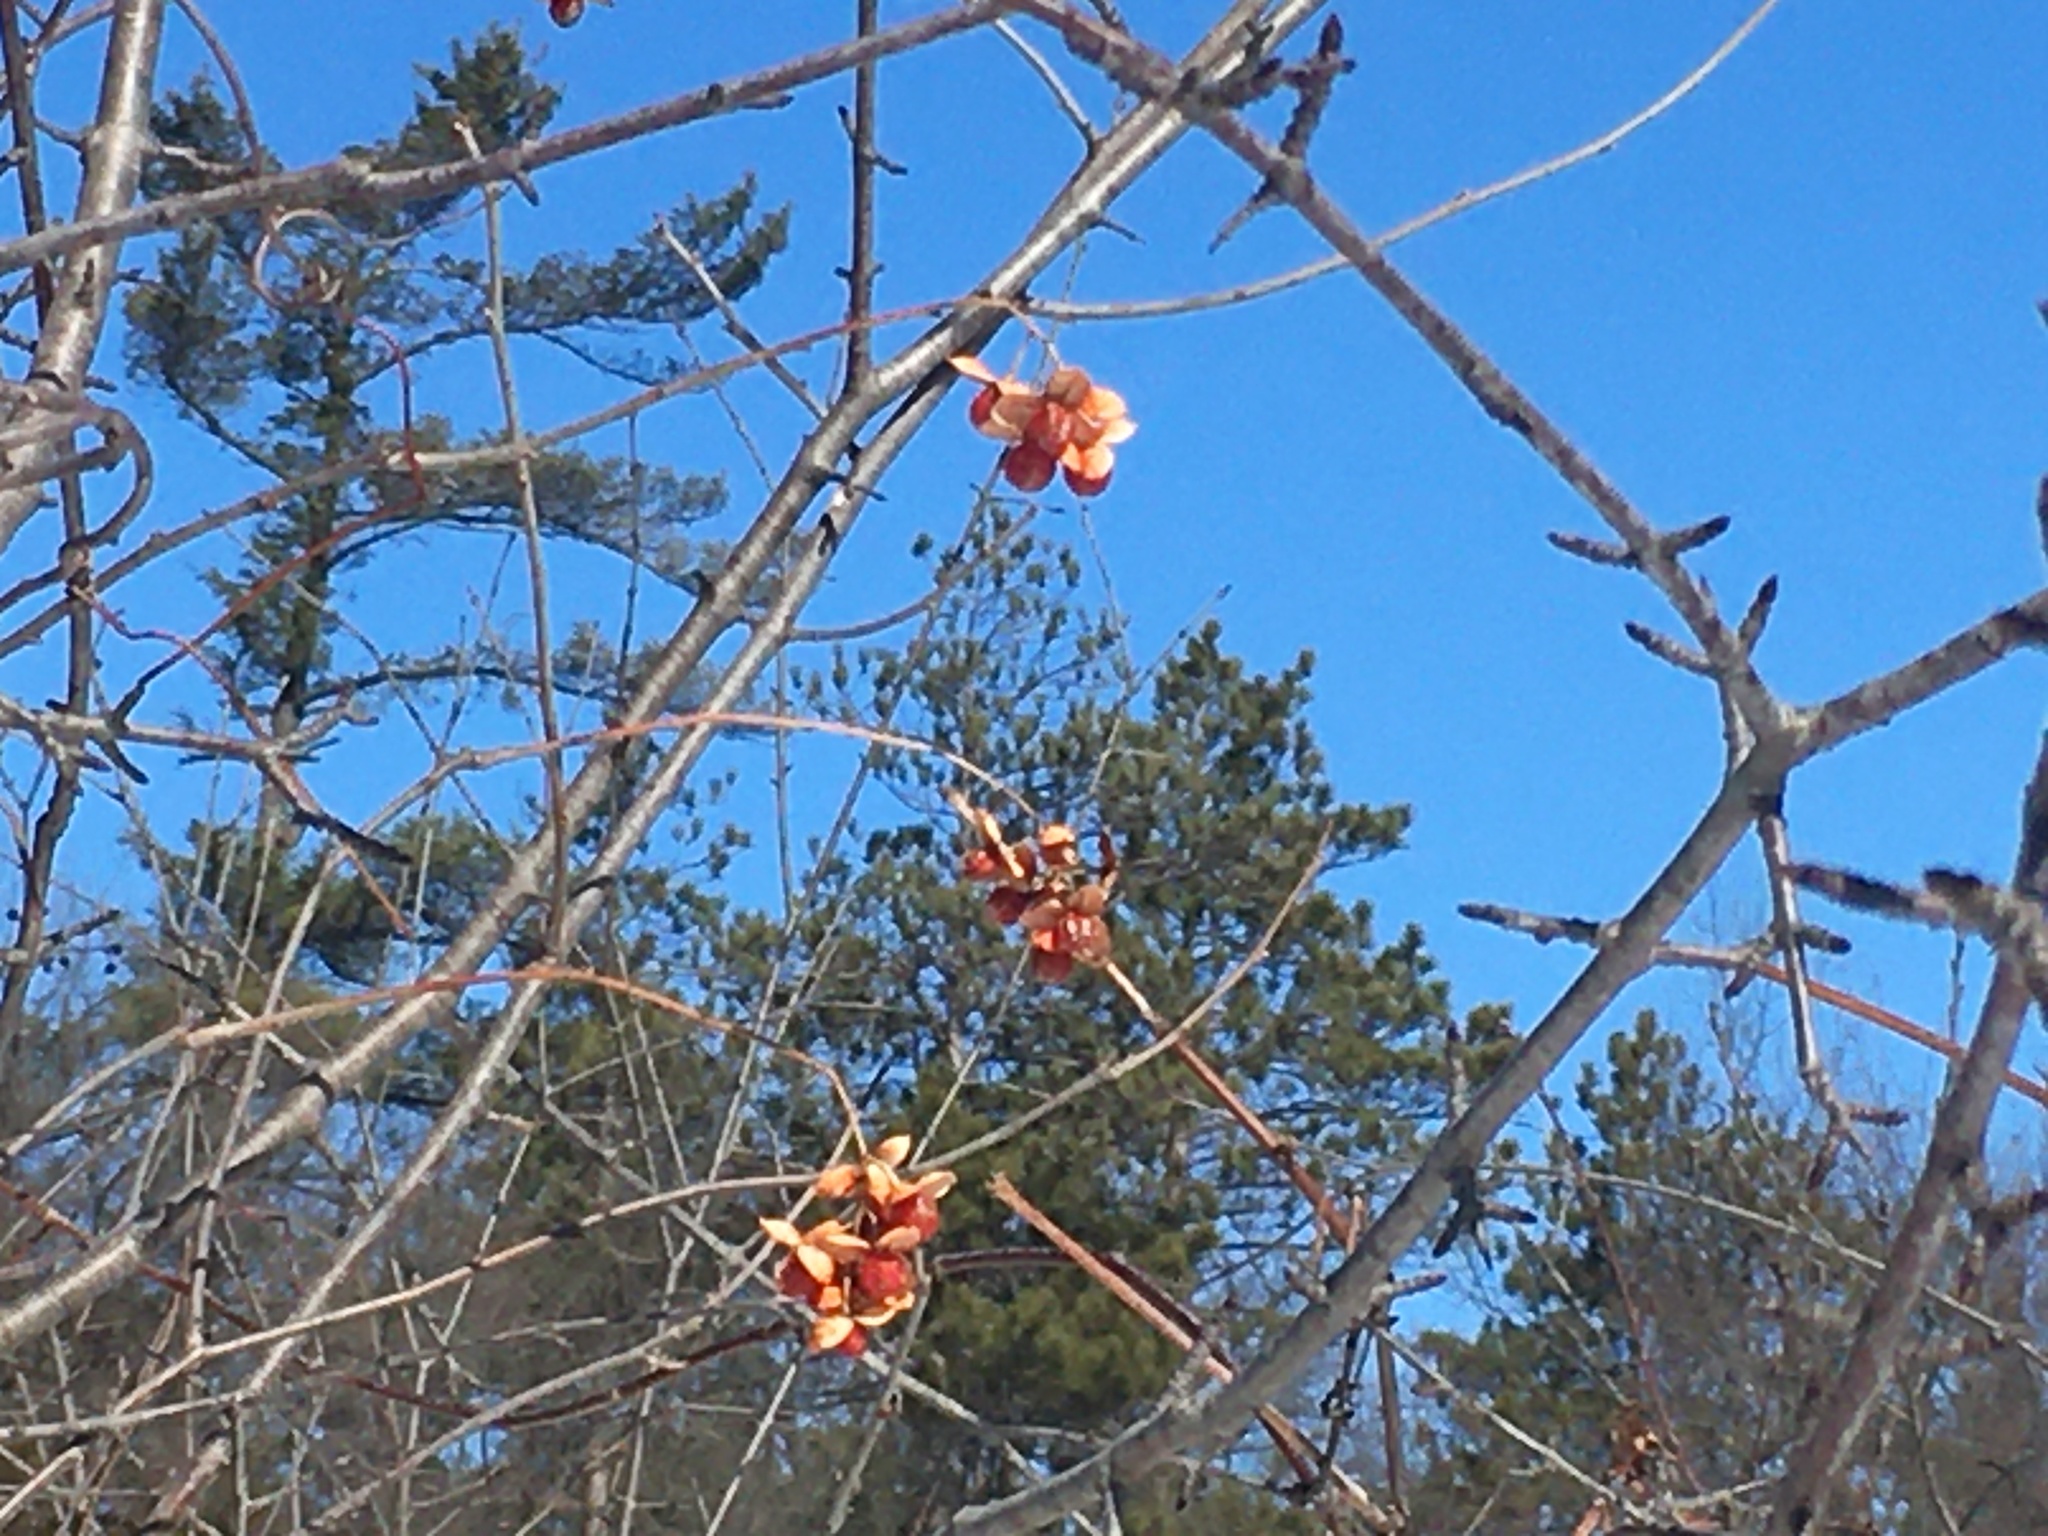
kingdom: Plantae
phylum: Tracheophyta
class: Magnoliopsida
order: Celastrales
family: Celastraceae
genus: Celastrus
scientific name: Celastrus scandens
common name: American bittersweet
